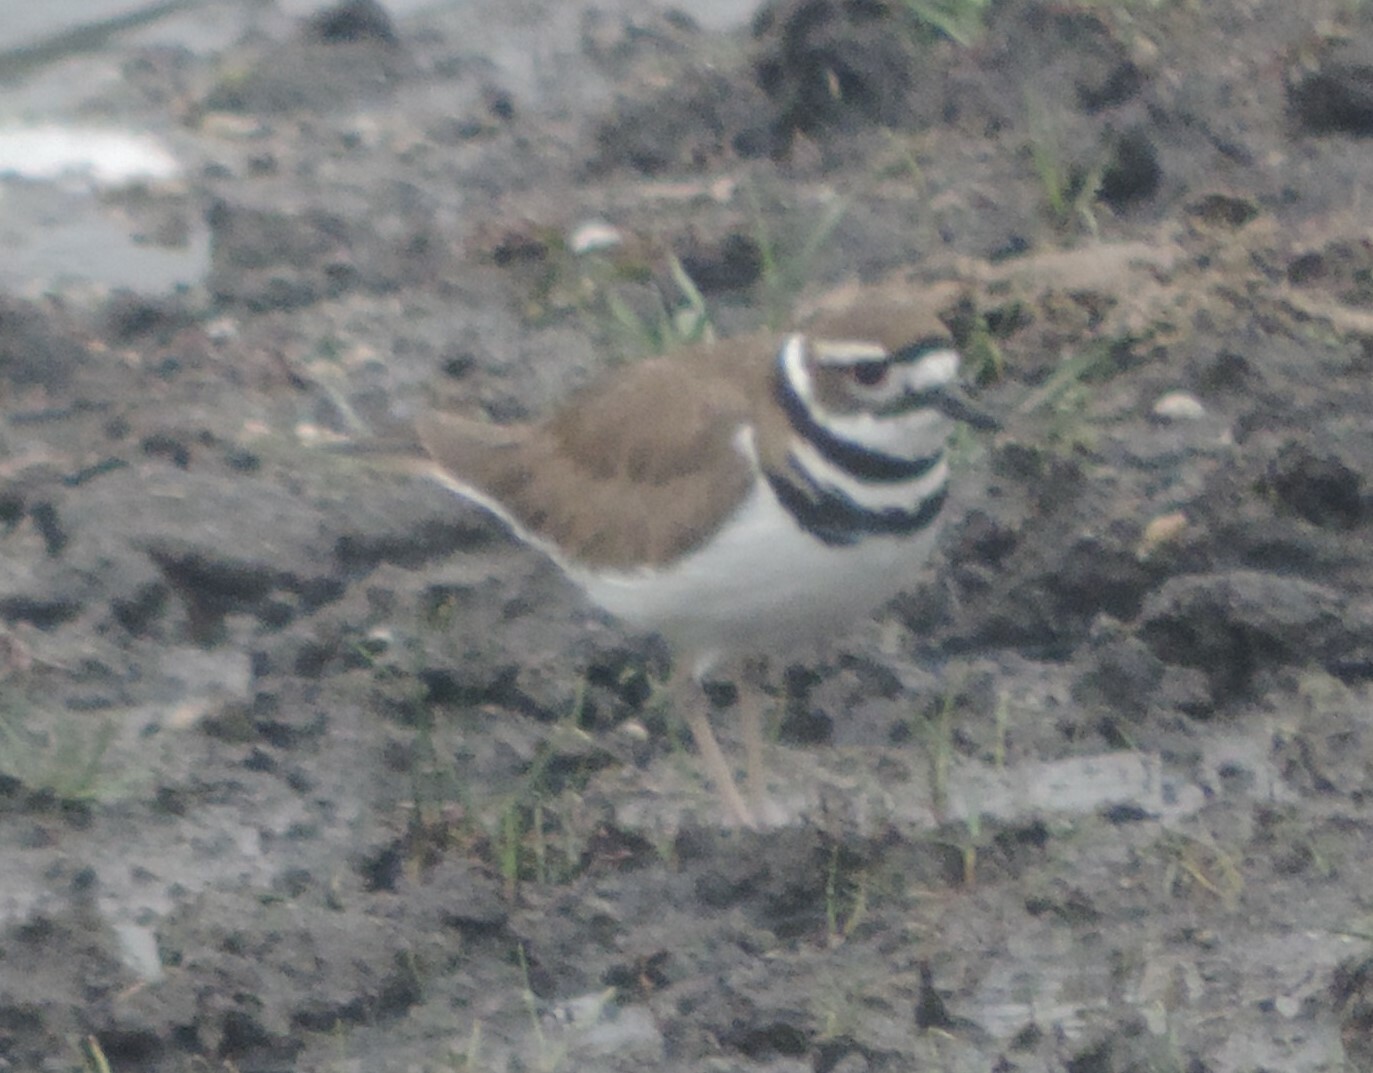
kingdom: Animalia
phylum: Chordata
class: Aves
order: Charadriiformes
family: Charadriidae
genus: Charadrius
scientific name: Charadrius vociferus
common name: Killdeer
